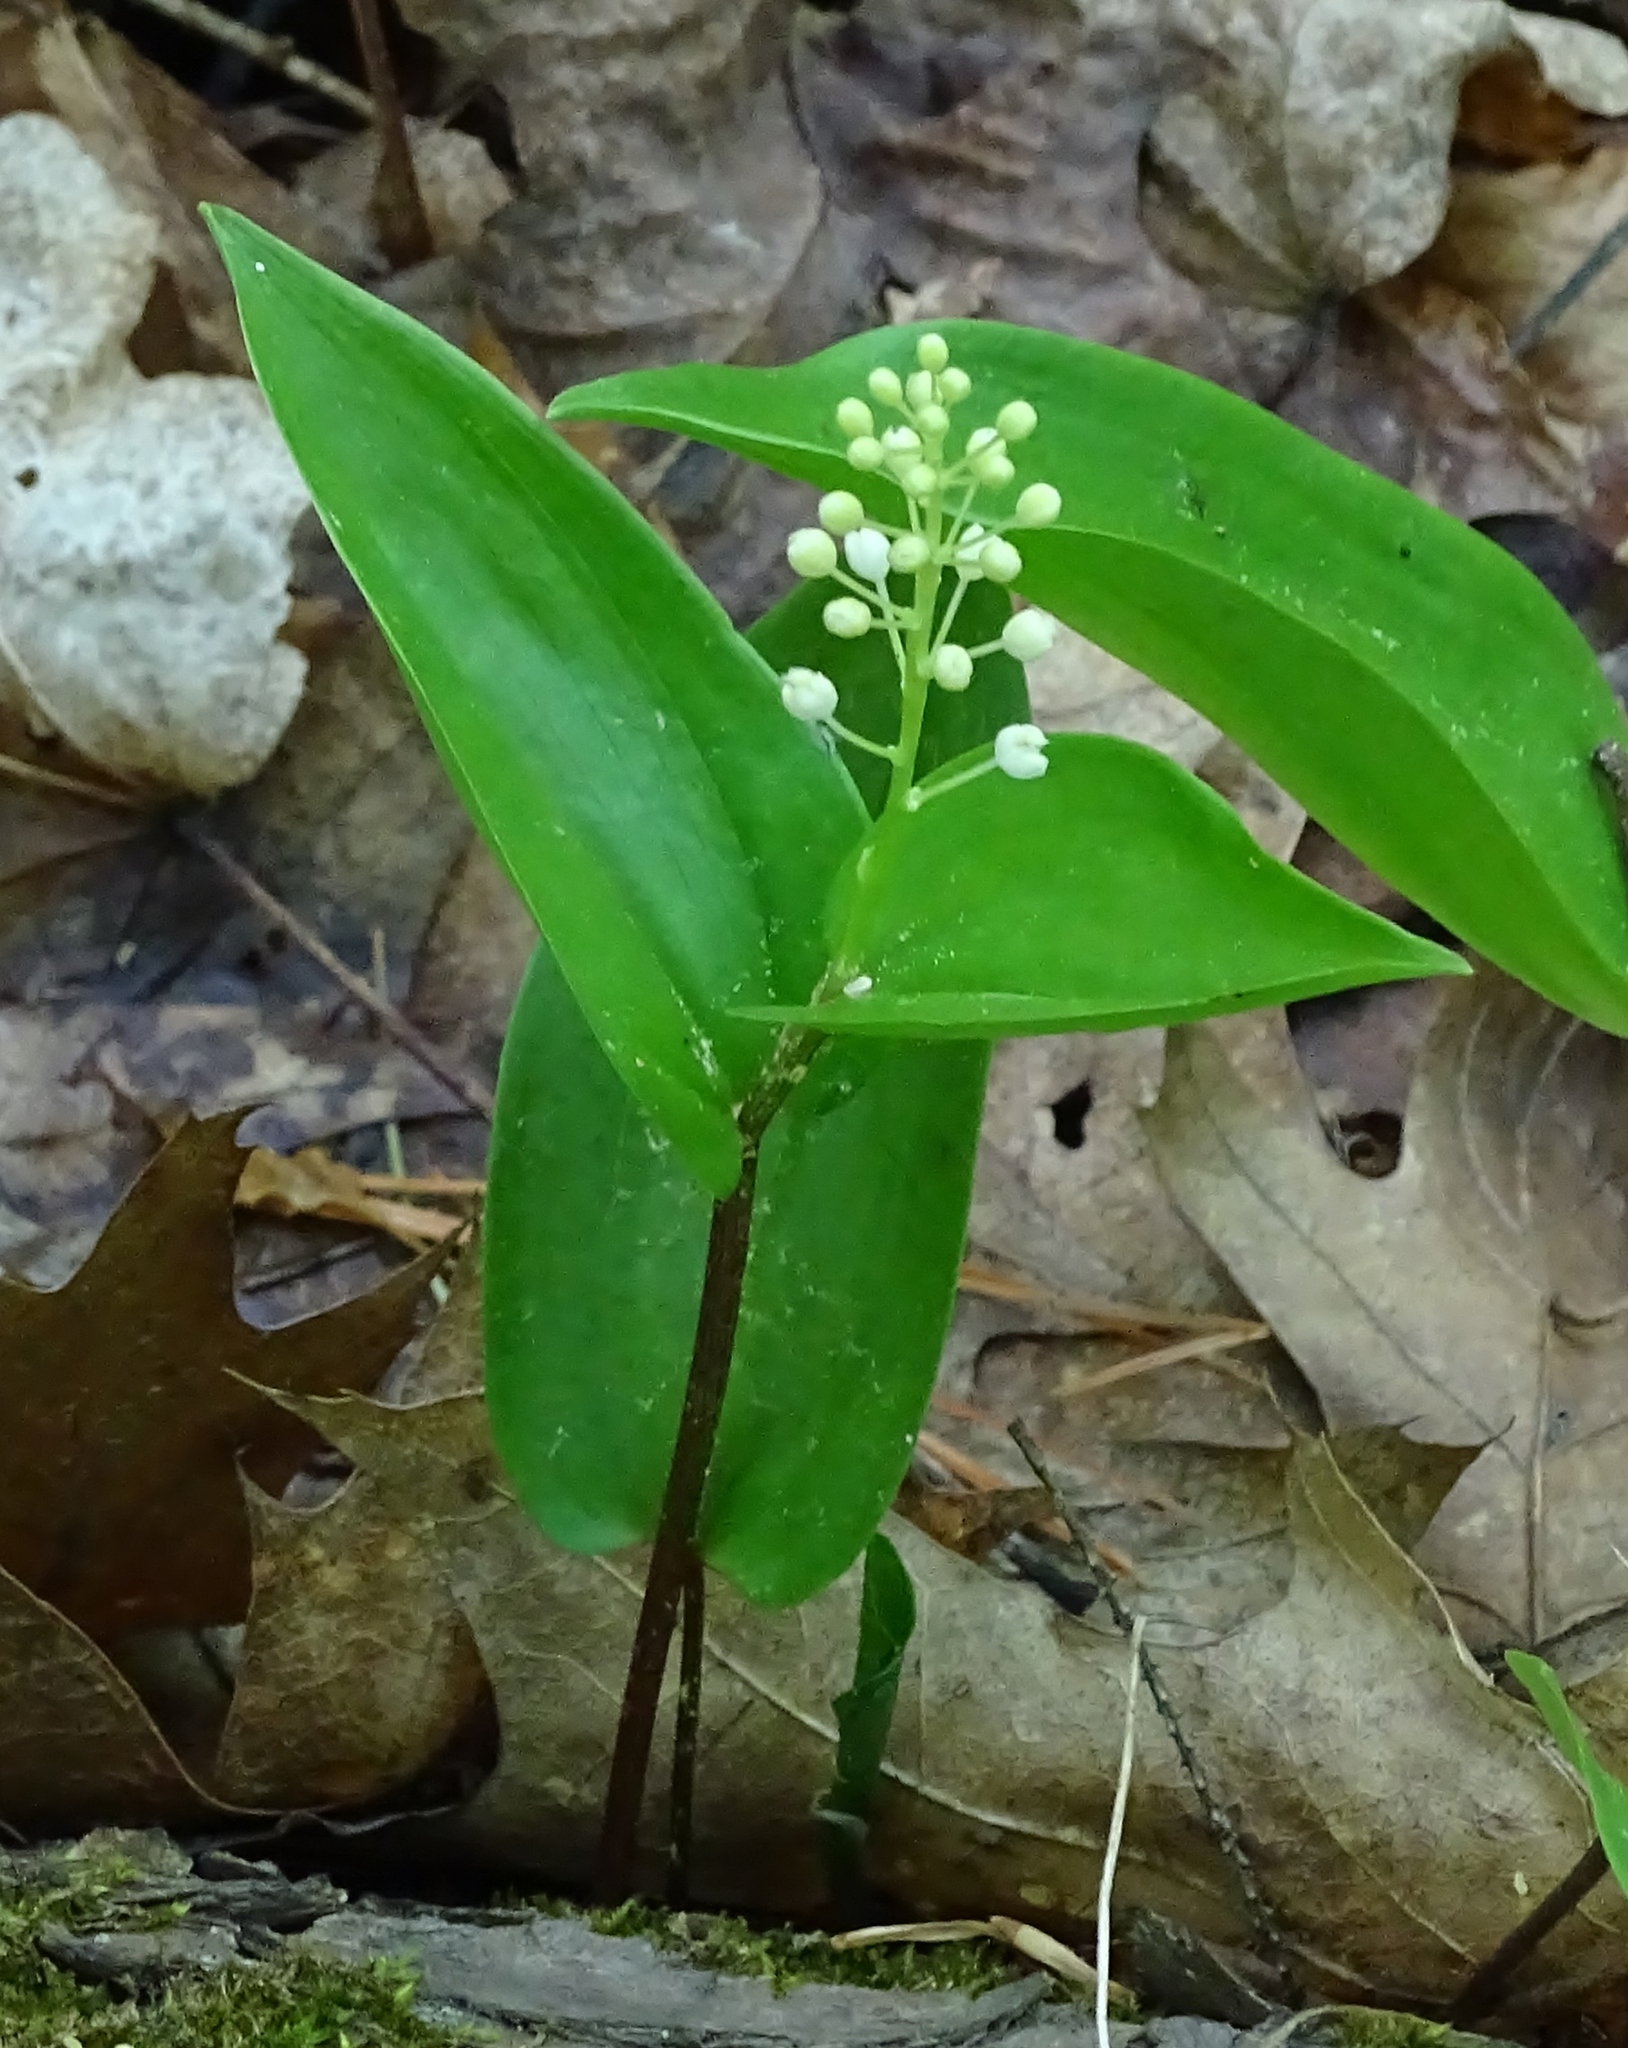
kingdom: Plantae
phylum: Tracheophyta
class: Liliopsida
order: Asparagales
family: Asparagaceae
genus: Maianthemum
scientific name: Maianthemum canadense
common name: False lily-of-the-valley
